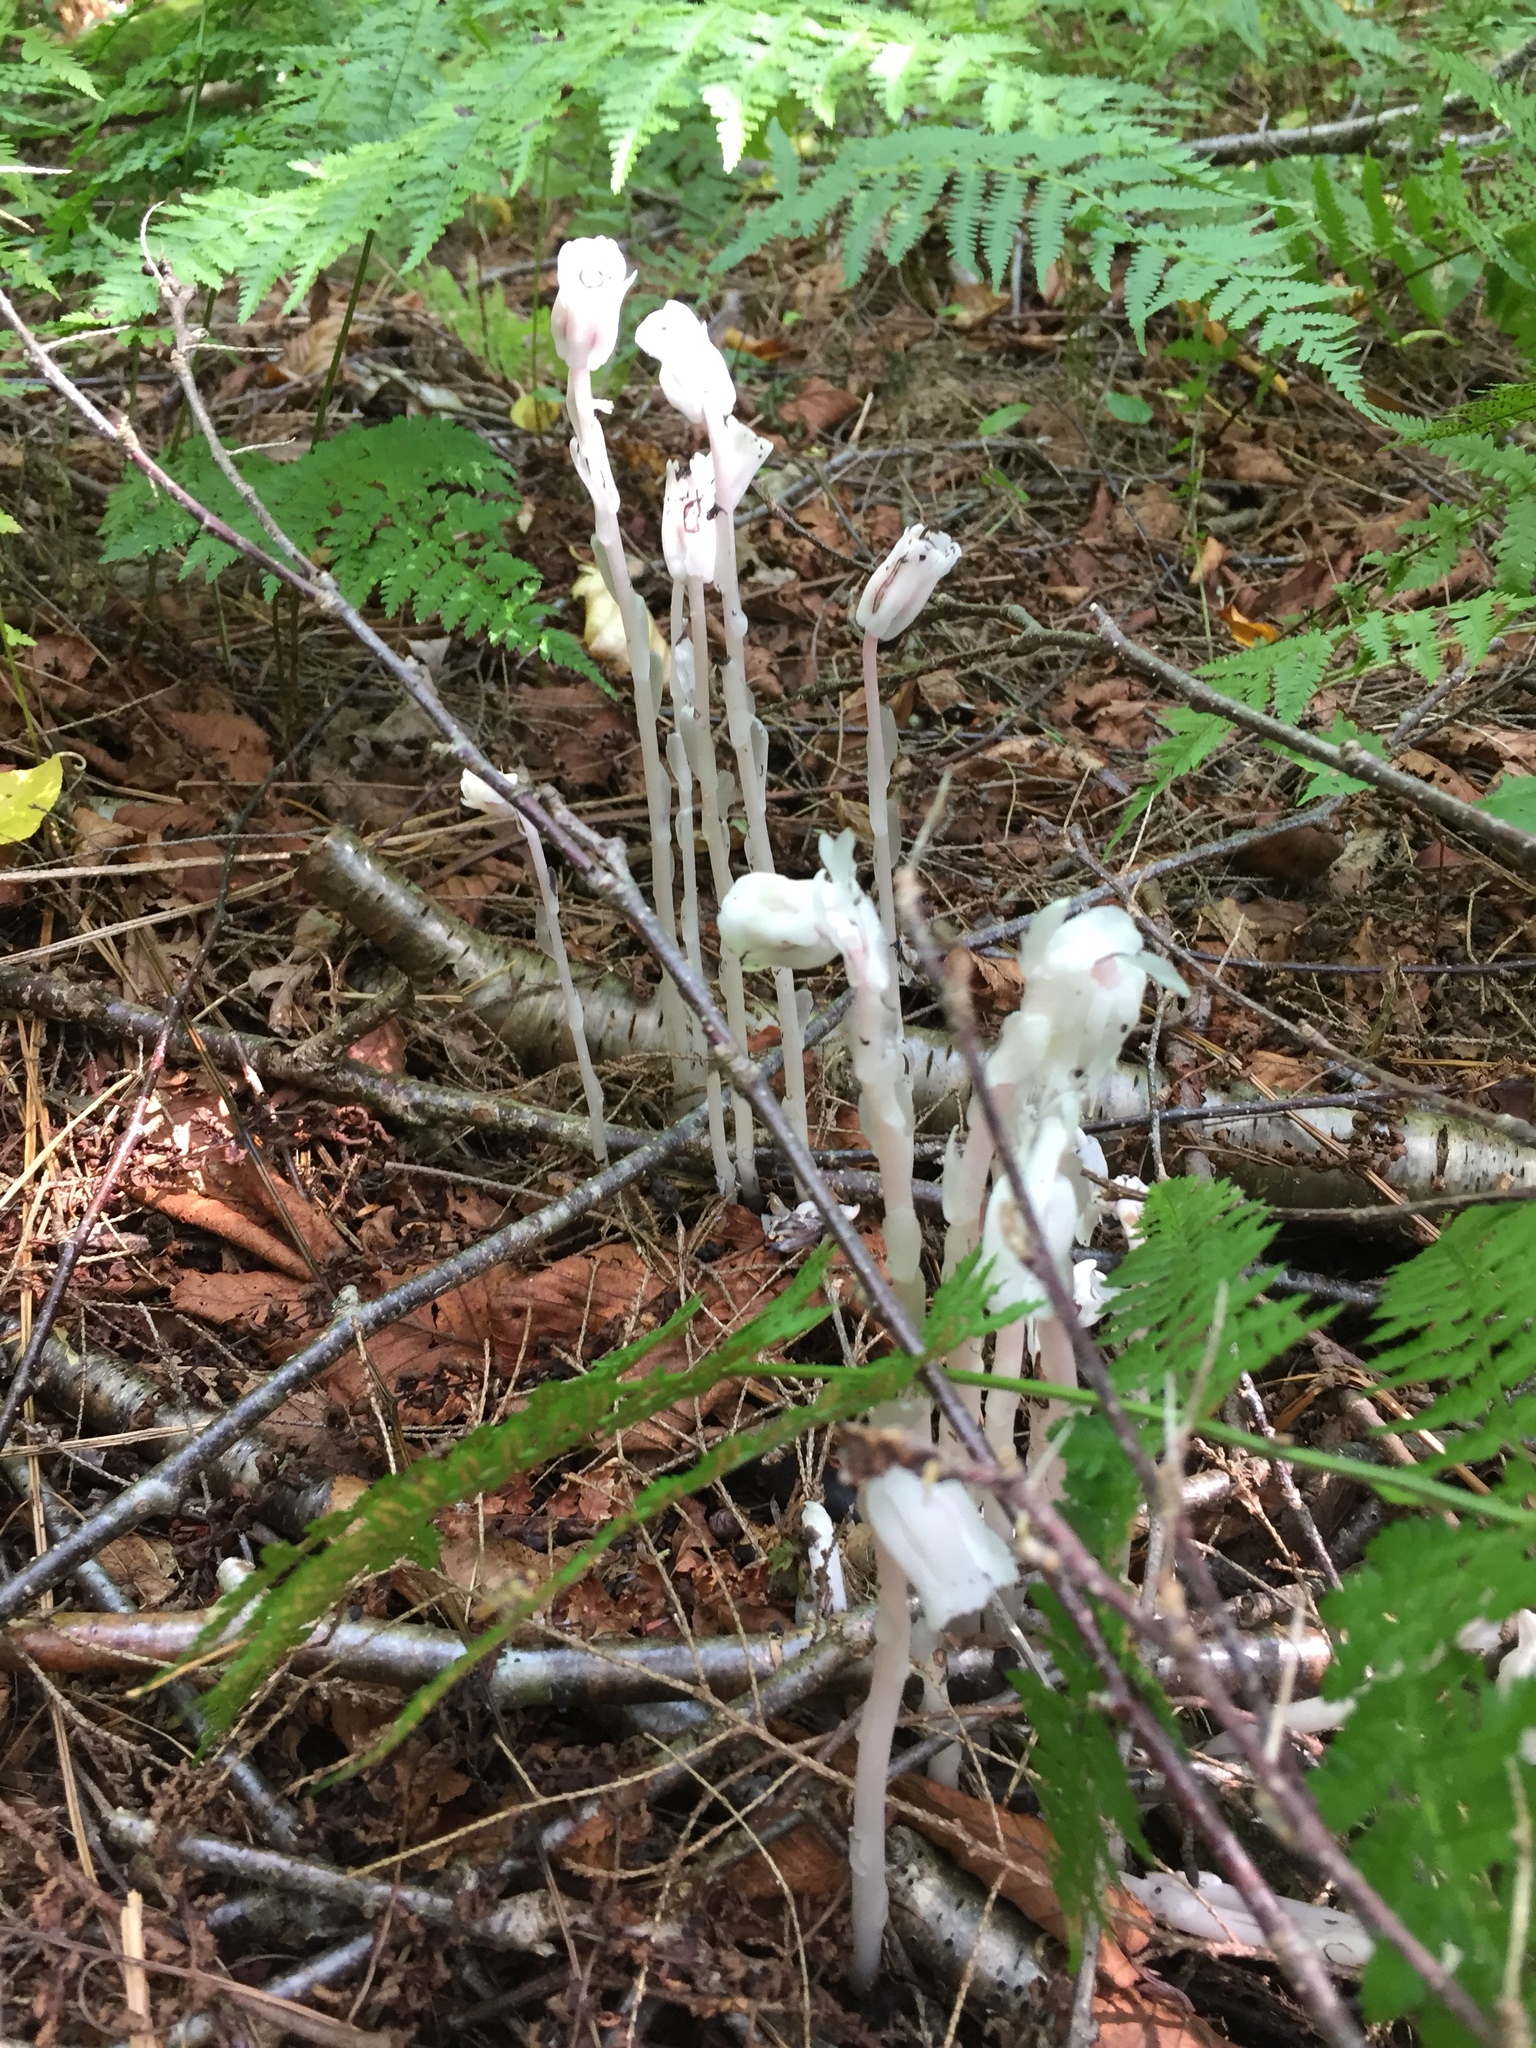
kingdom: Plantae
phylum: Tracheophyta
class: Magnoliopsida
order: Ericales
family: Ericaceae
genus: Monotropa
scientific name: Monotropa uniflora
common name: Convulsion root
